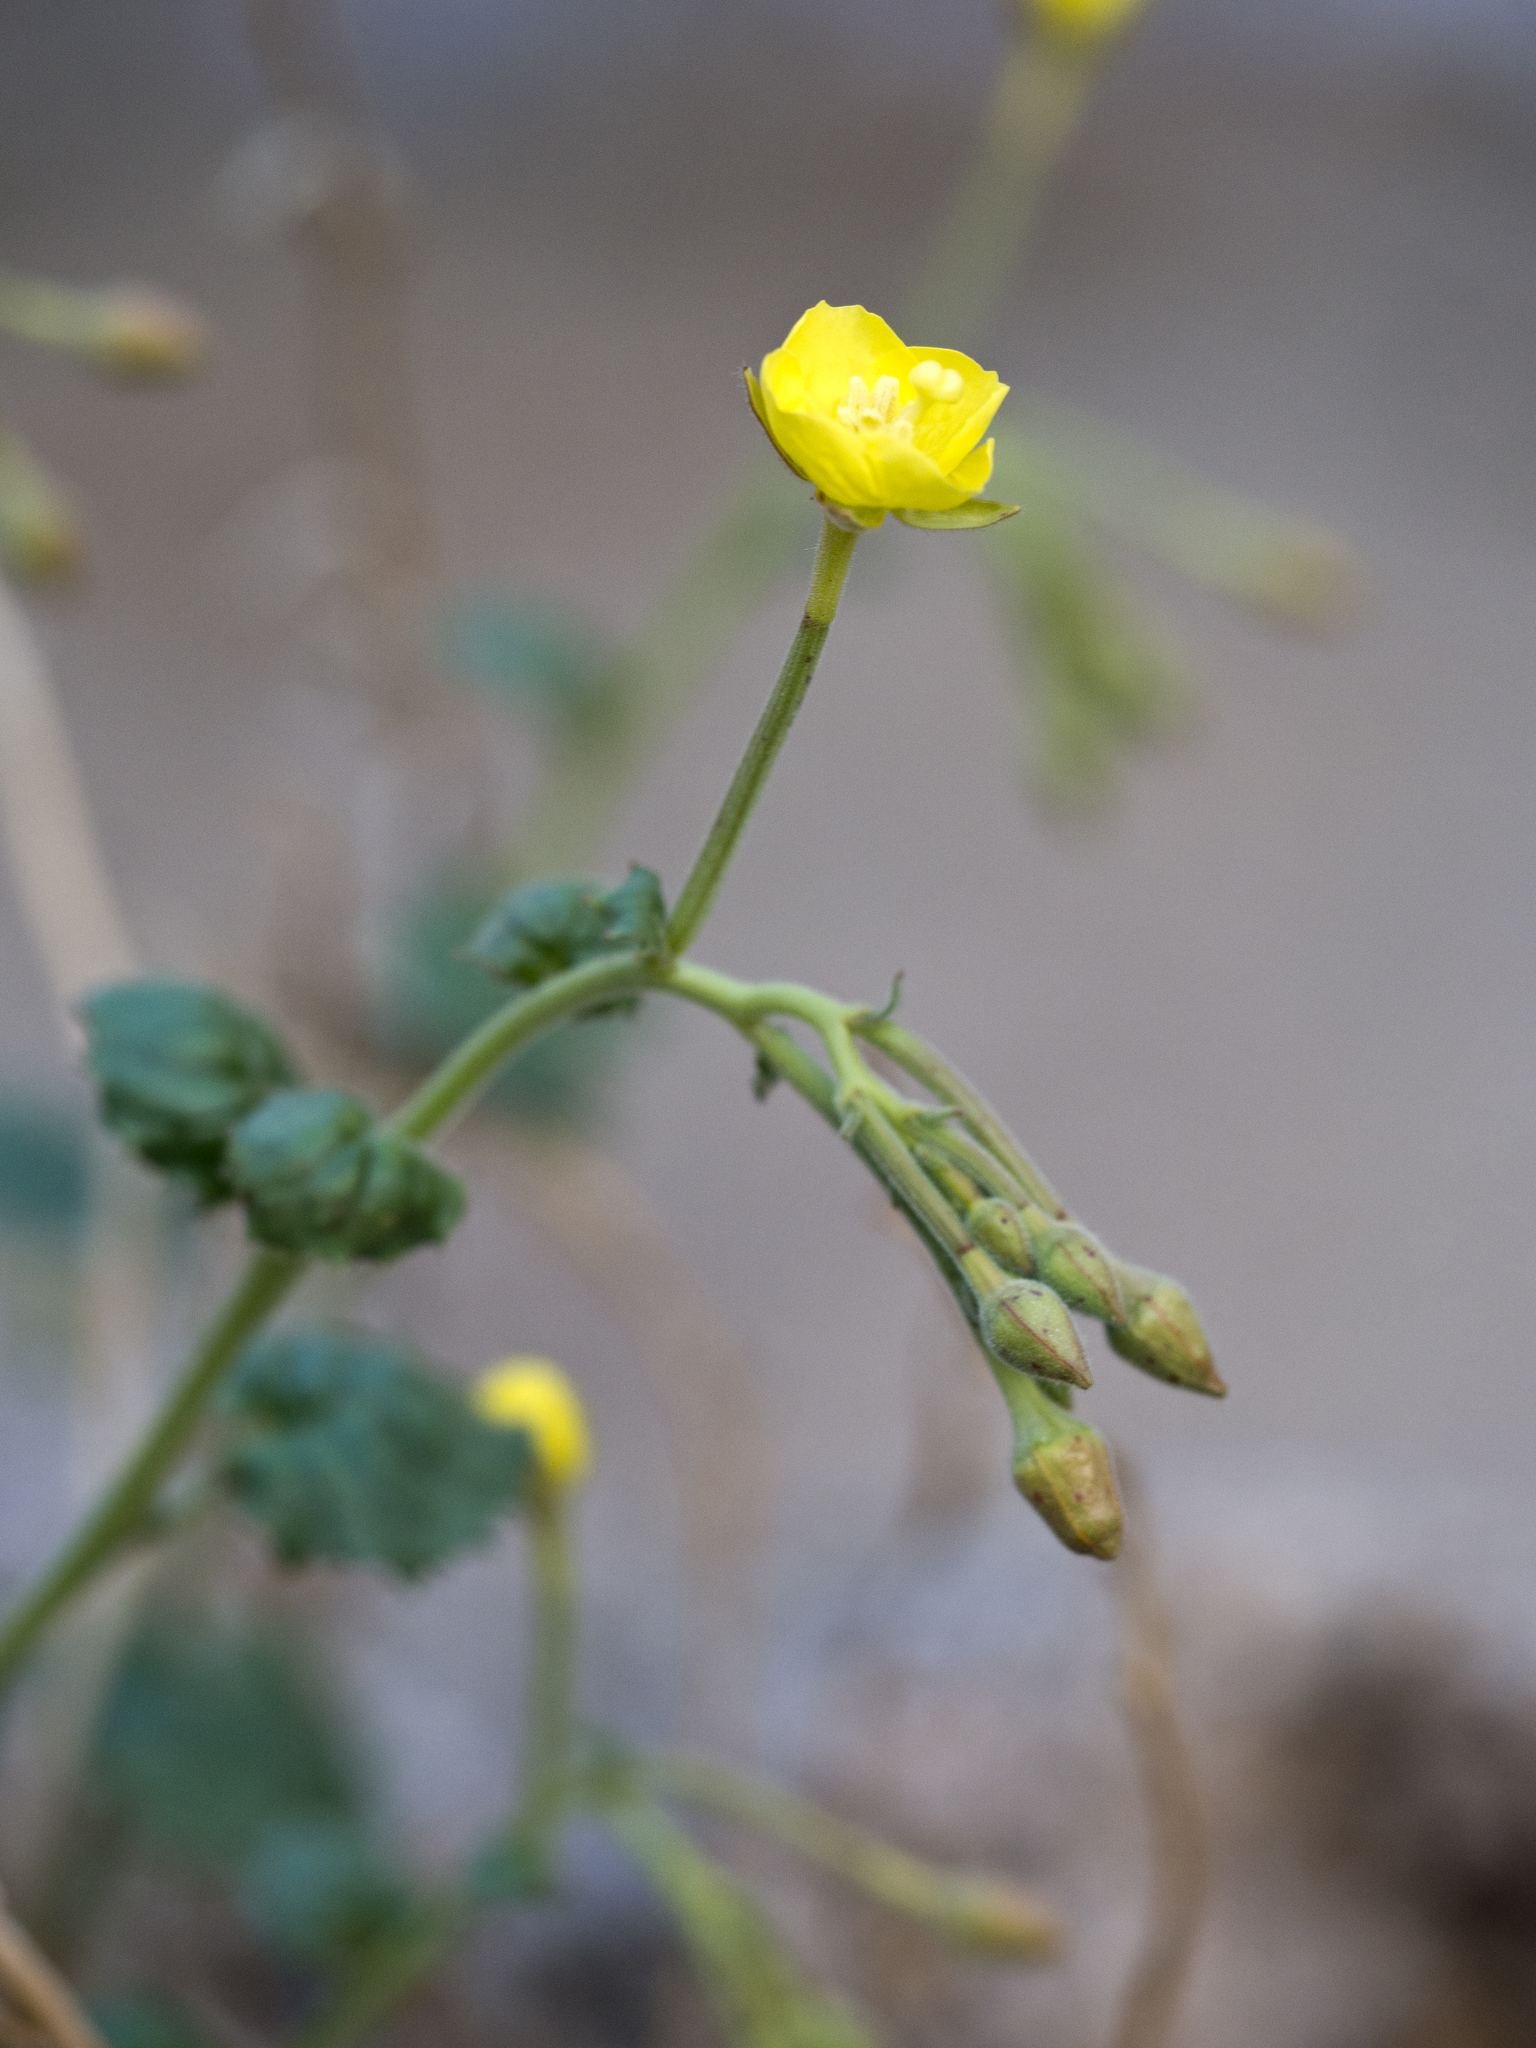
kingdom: Plantae
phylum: Tracheophyta
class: Magnoliopsida
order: Myrtales
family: Onagraceae
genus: Chylismia
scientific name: Chylismia cardiophylla
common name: Heartleaf suncup
